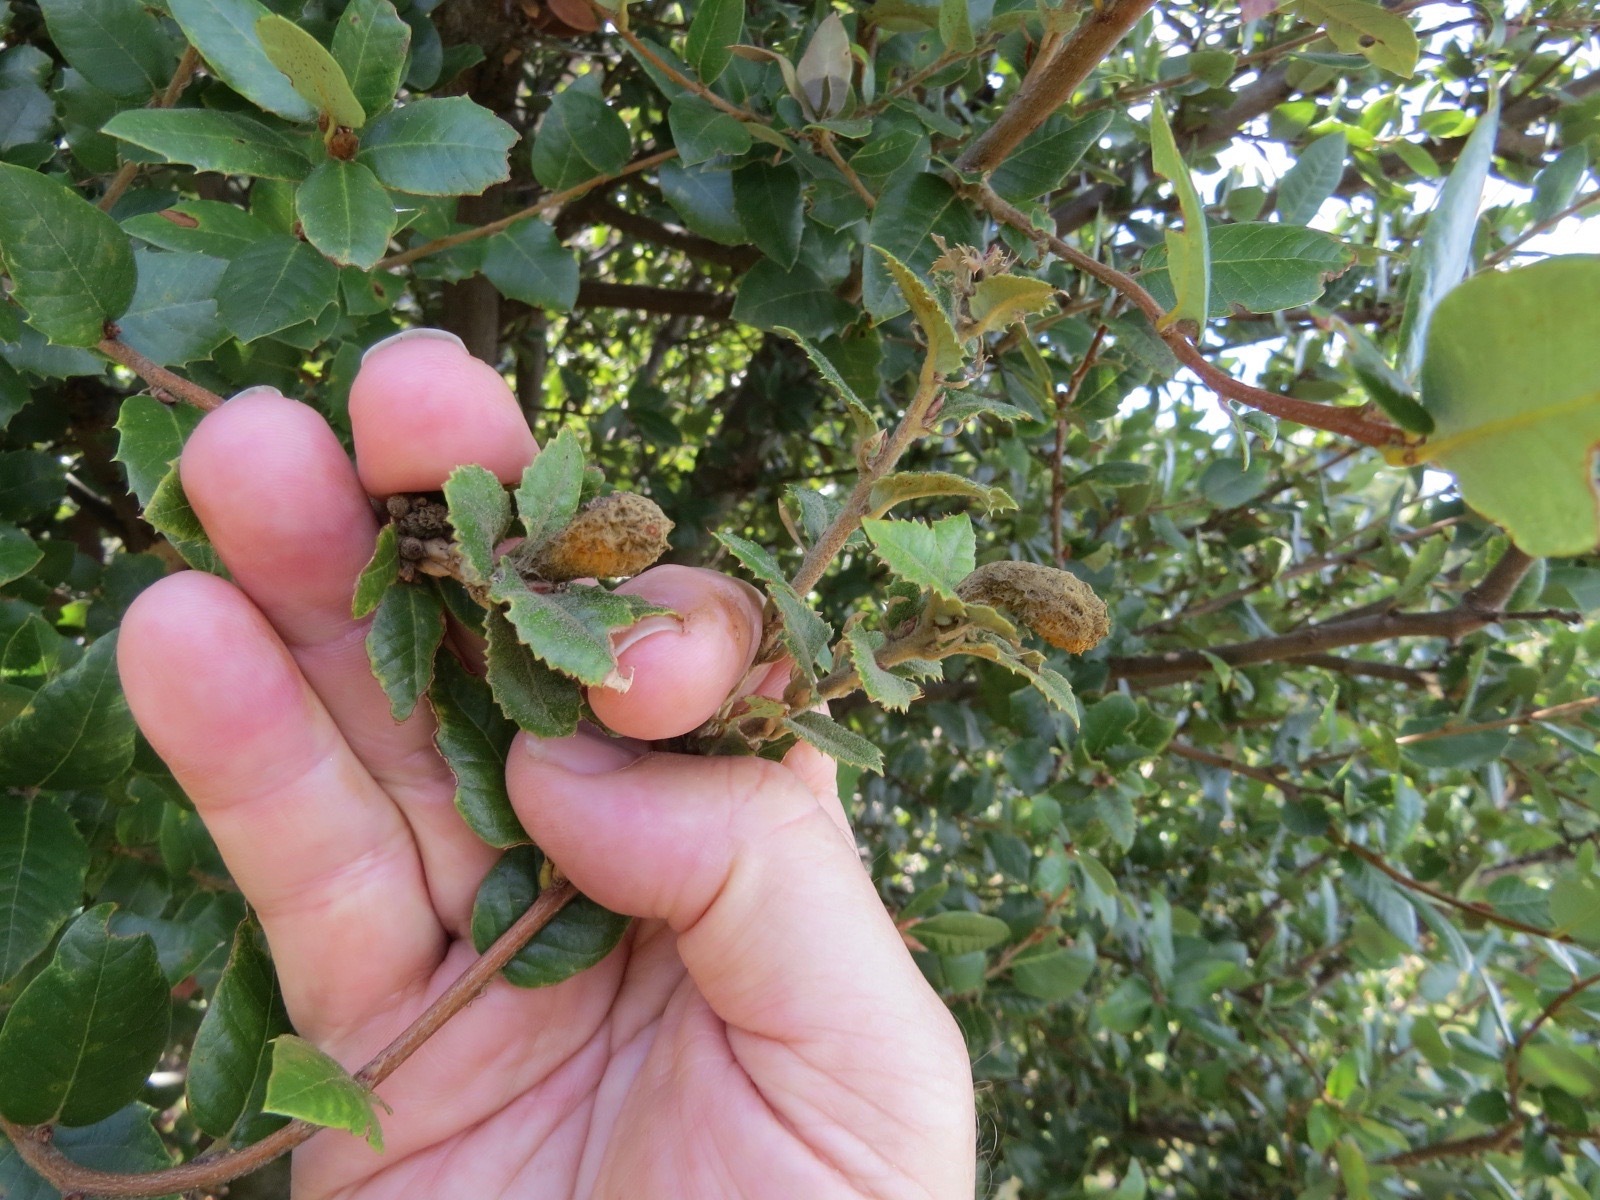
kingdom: Animalia
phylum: Arthropoda
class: Insecta
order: Hymenoptera
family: Cynipidae
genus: Heteroecus
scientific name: Heteroecus
